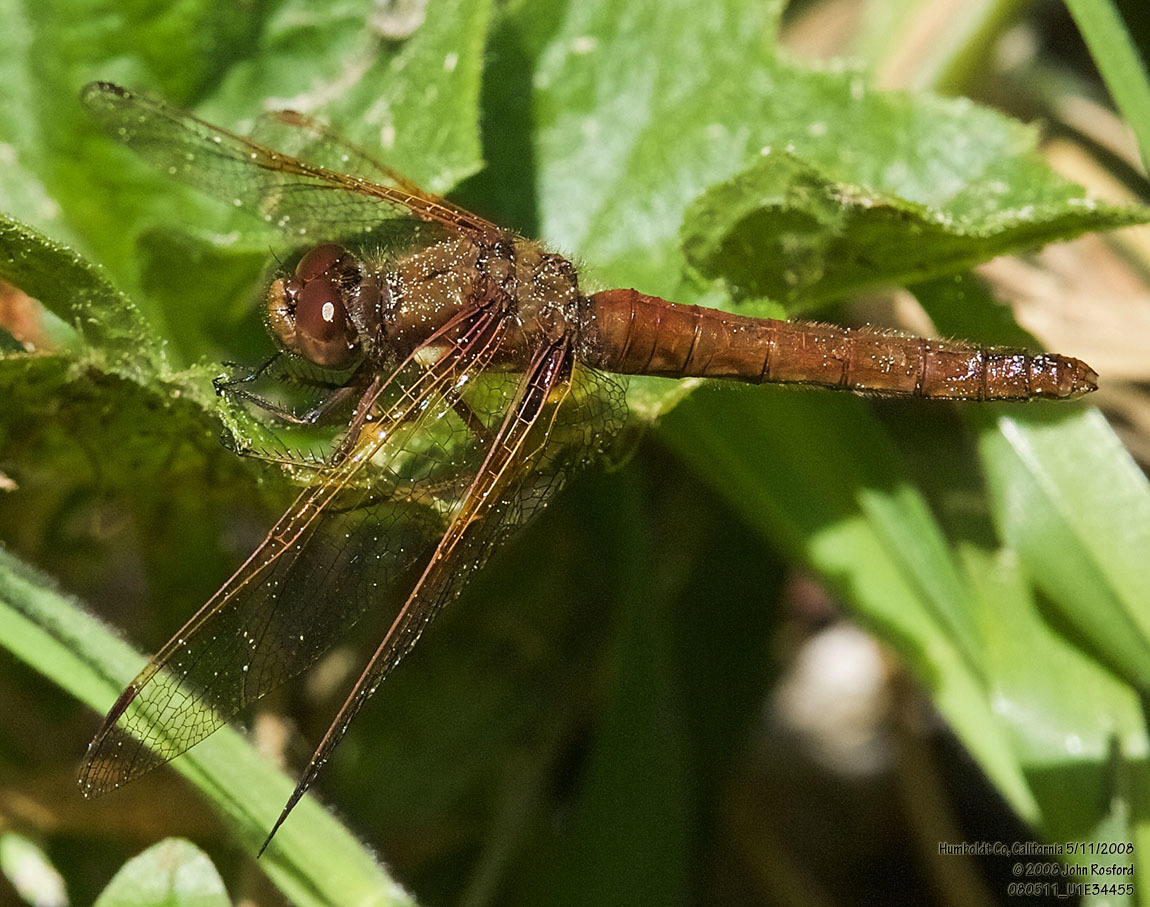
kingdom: Animalia
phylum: Arthropoda
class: Insecta
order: Odonata
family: Libellulidae
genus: Sympetrum
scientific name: Sympetrum illotum
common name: Cardinal meadowhawk
